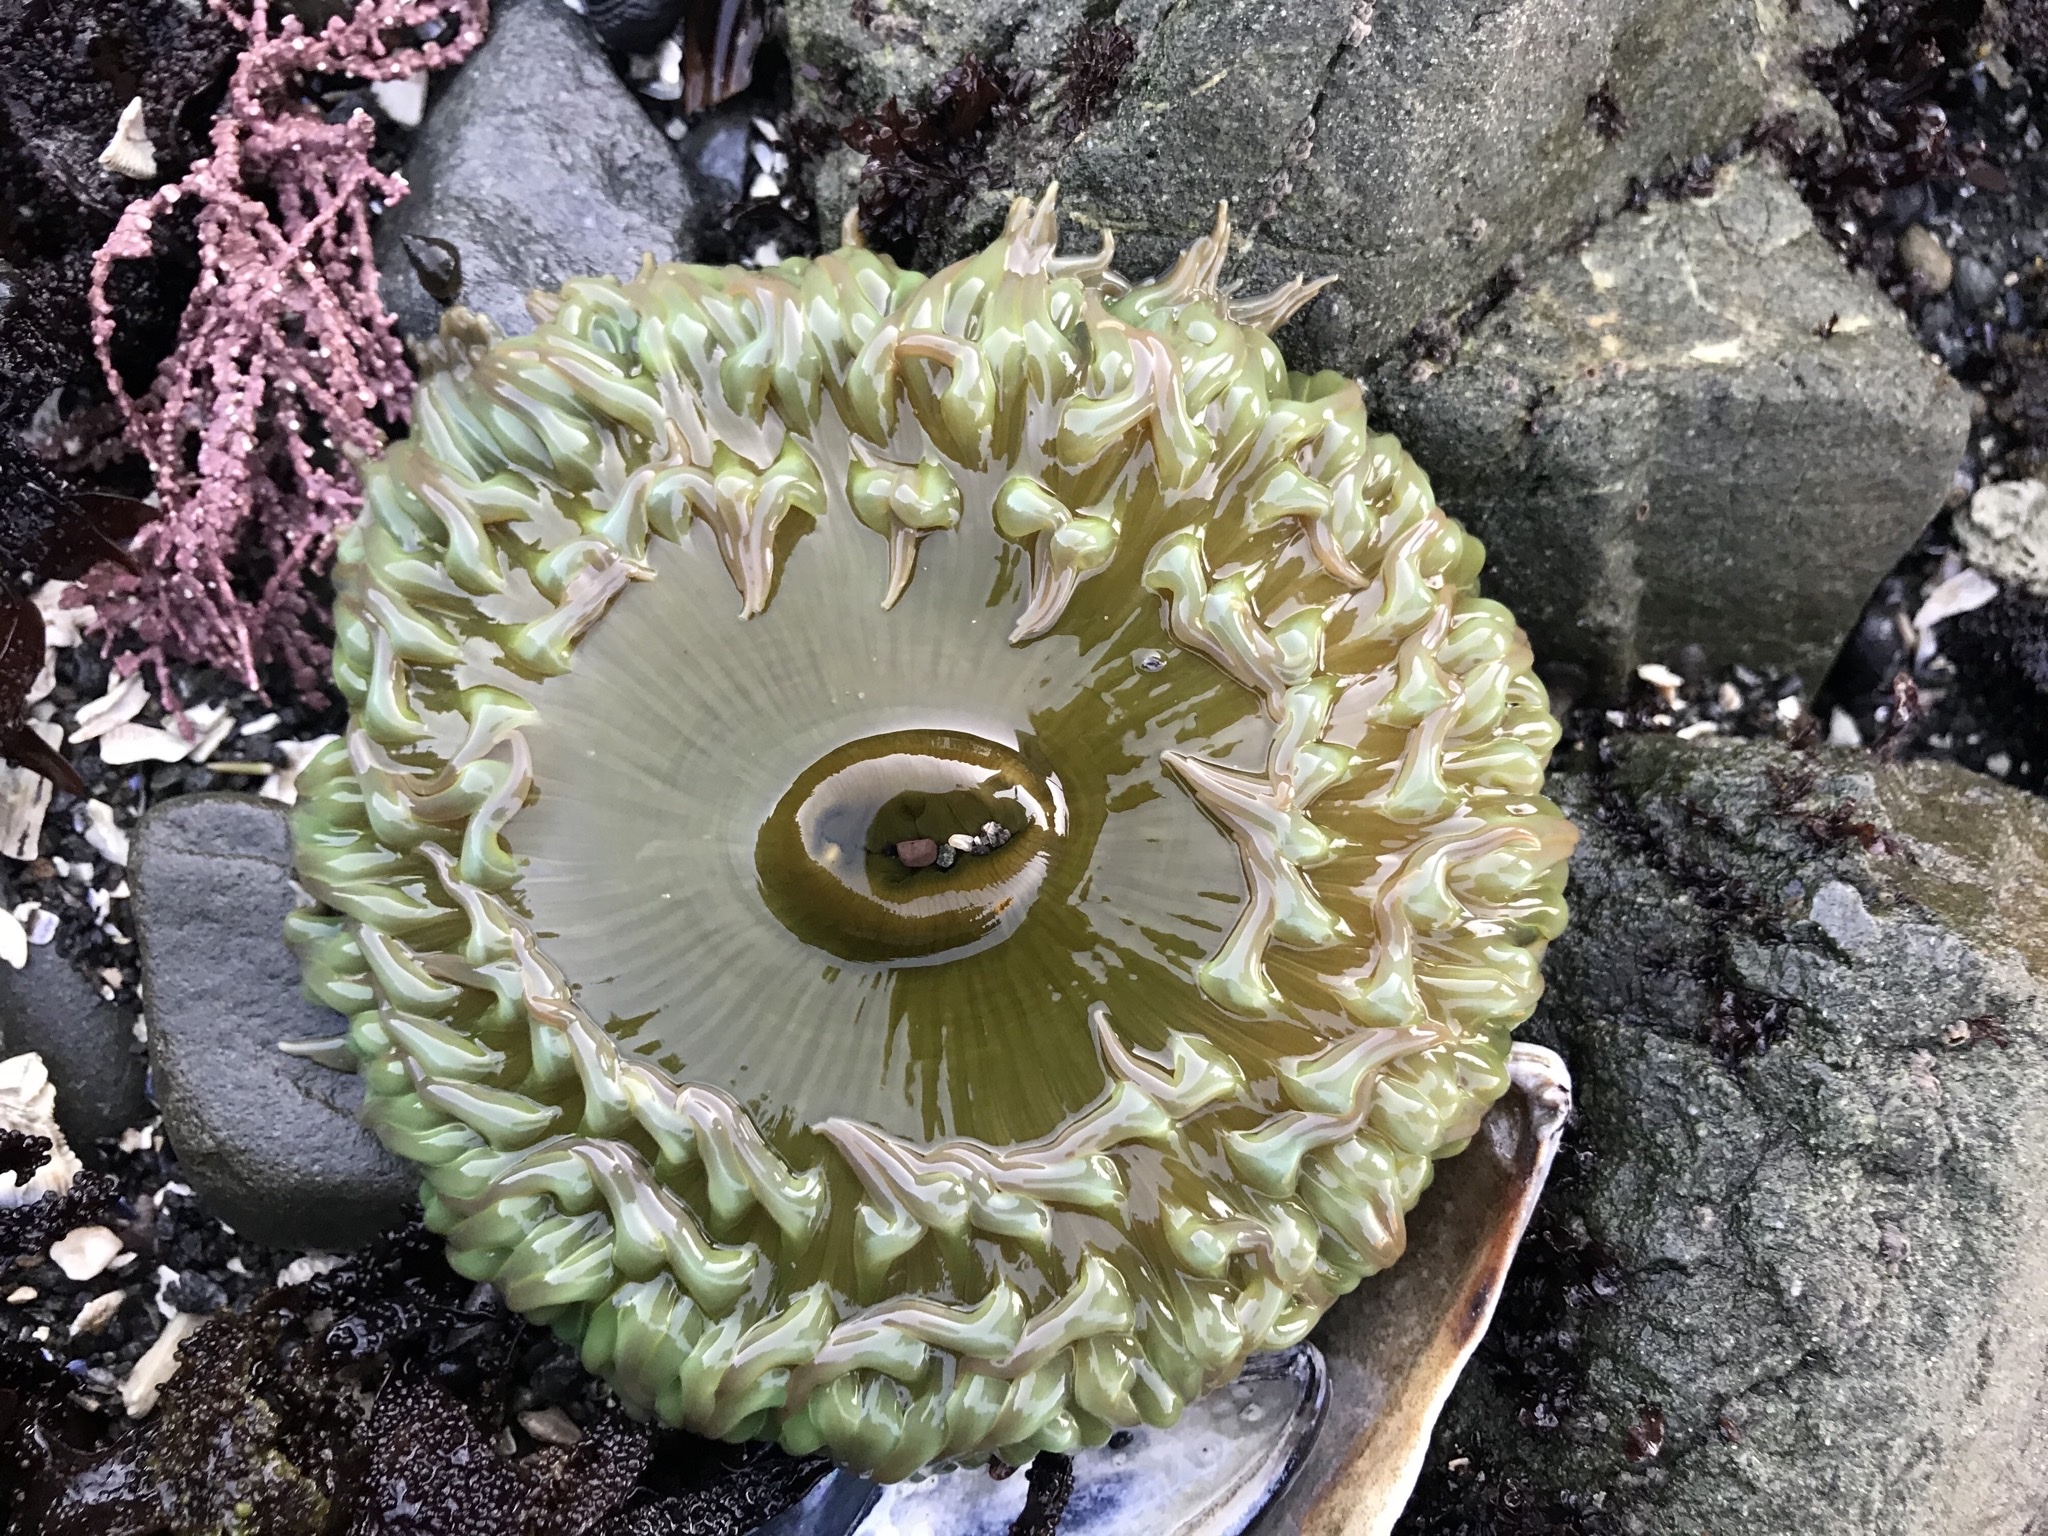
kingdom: Animalia
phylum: Cnidaria
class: Anthozoa
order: Actiniaria
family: Actiniidae
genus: Anthopleura
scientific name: Anthopleura xanthogrammica
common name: Giant green anemone
